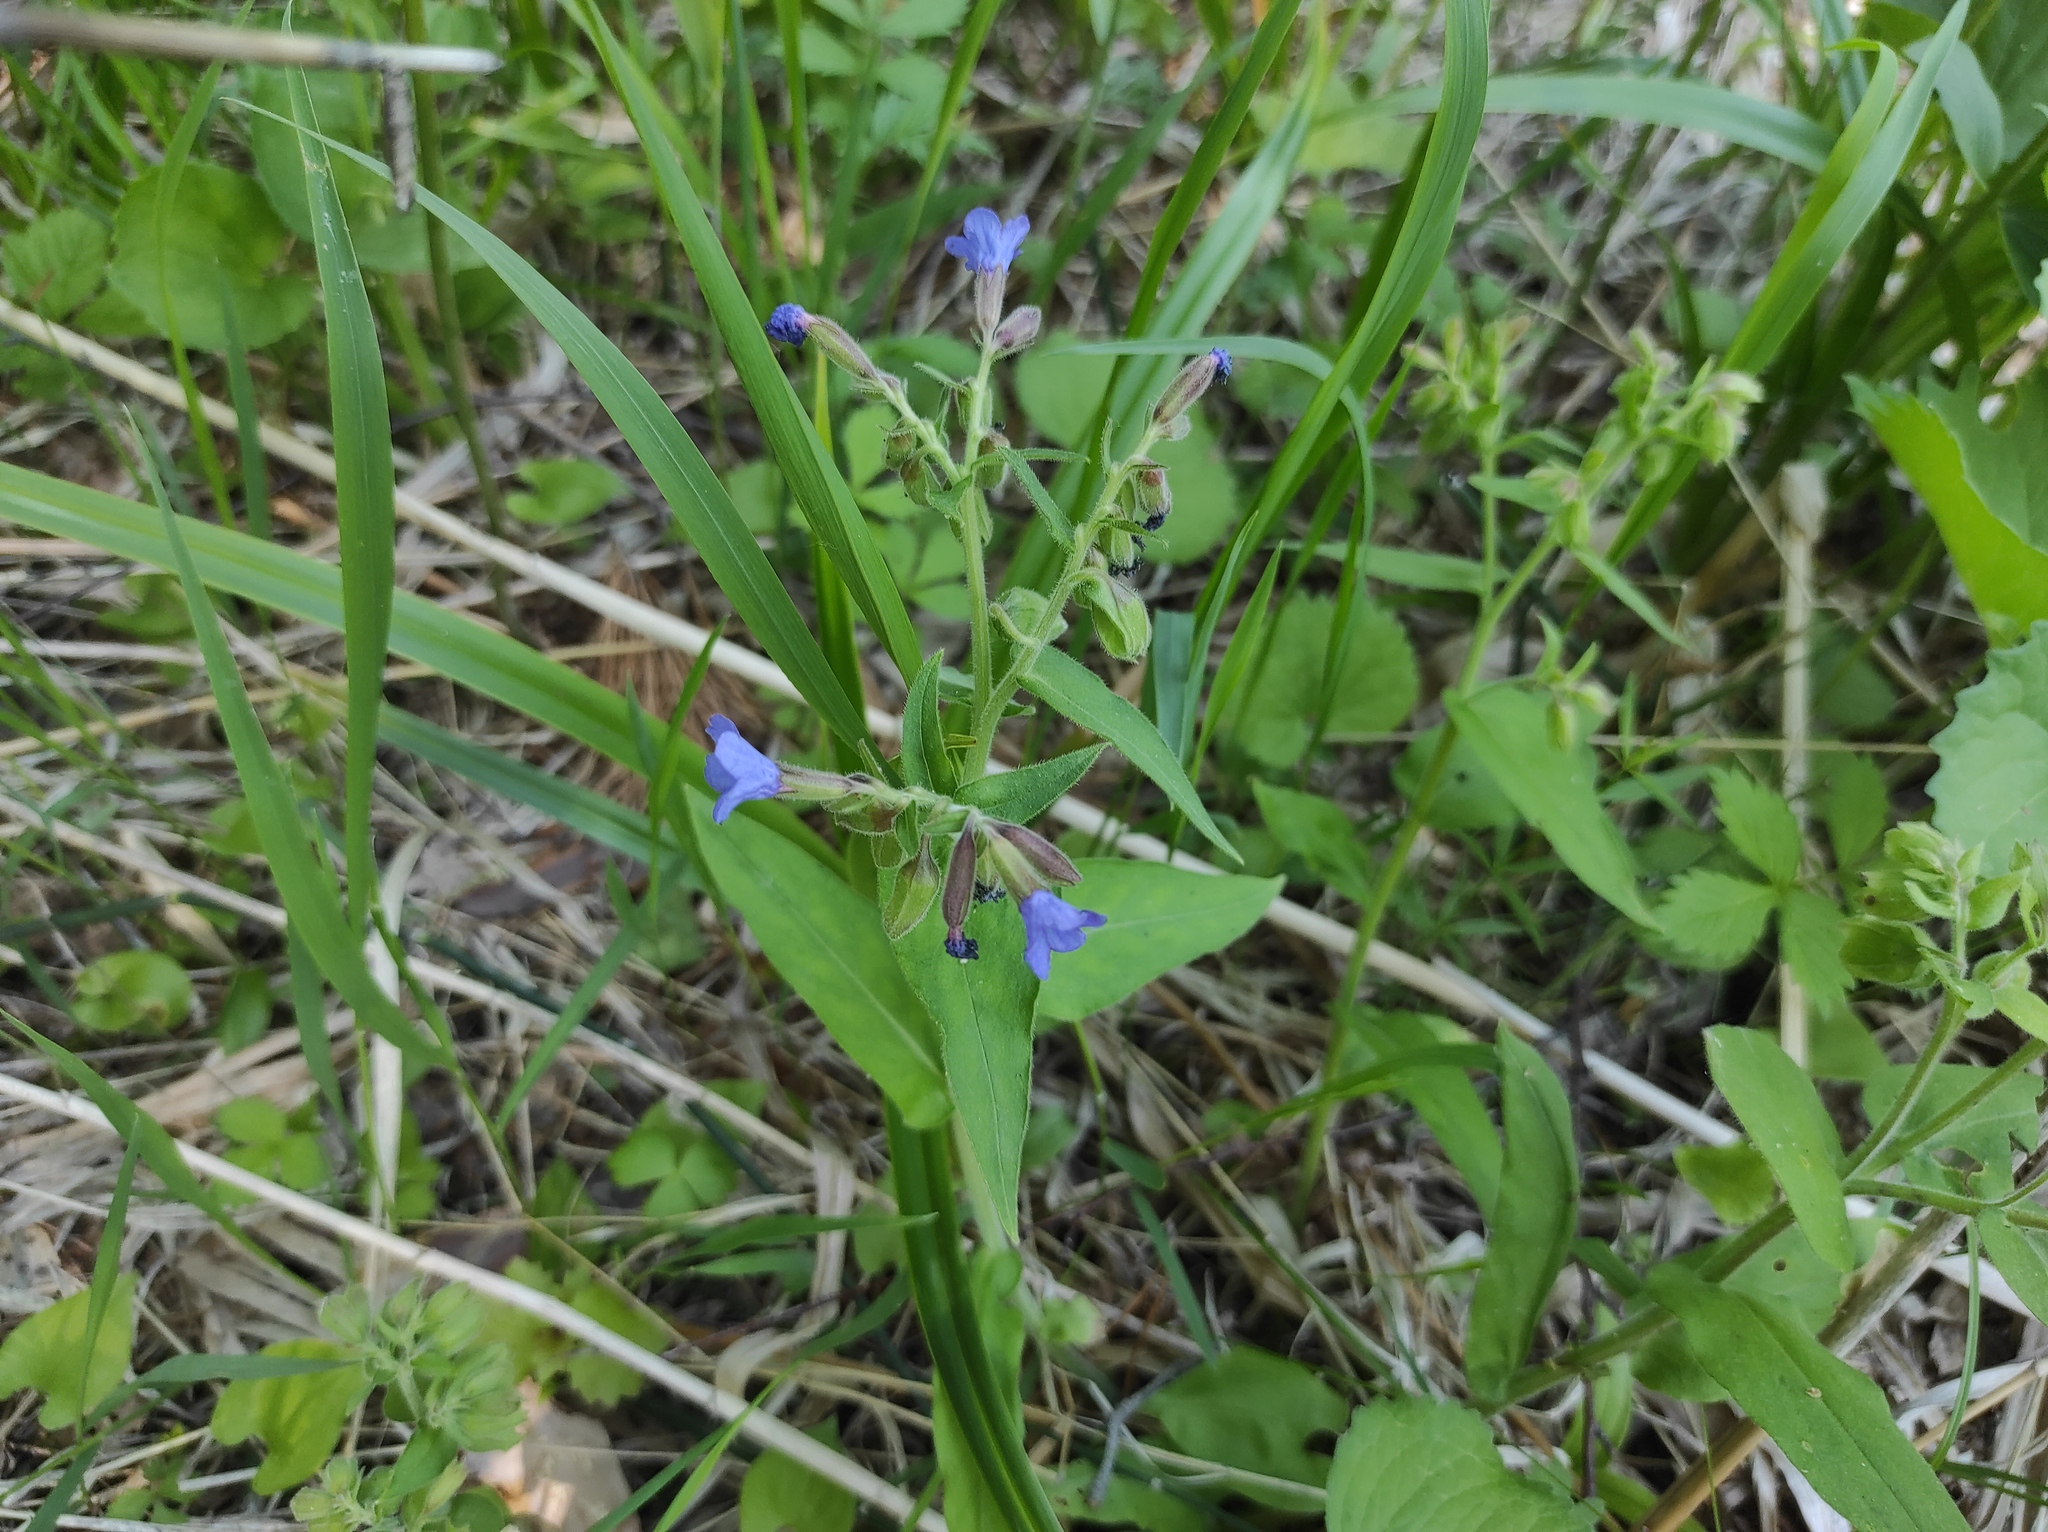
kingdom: Plantae
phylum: Tracheophyta
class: Magnoliopsida
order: Boraginales
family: Boraginaceae
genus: Pulmonaria
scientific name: Pulmonaria mollis
